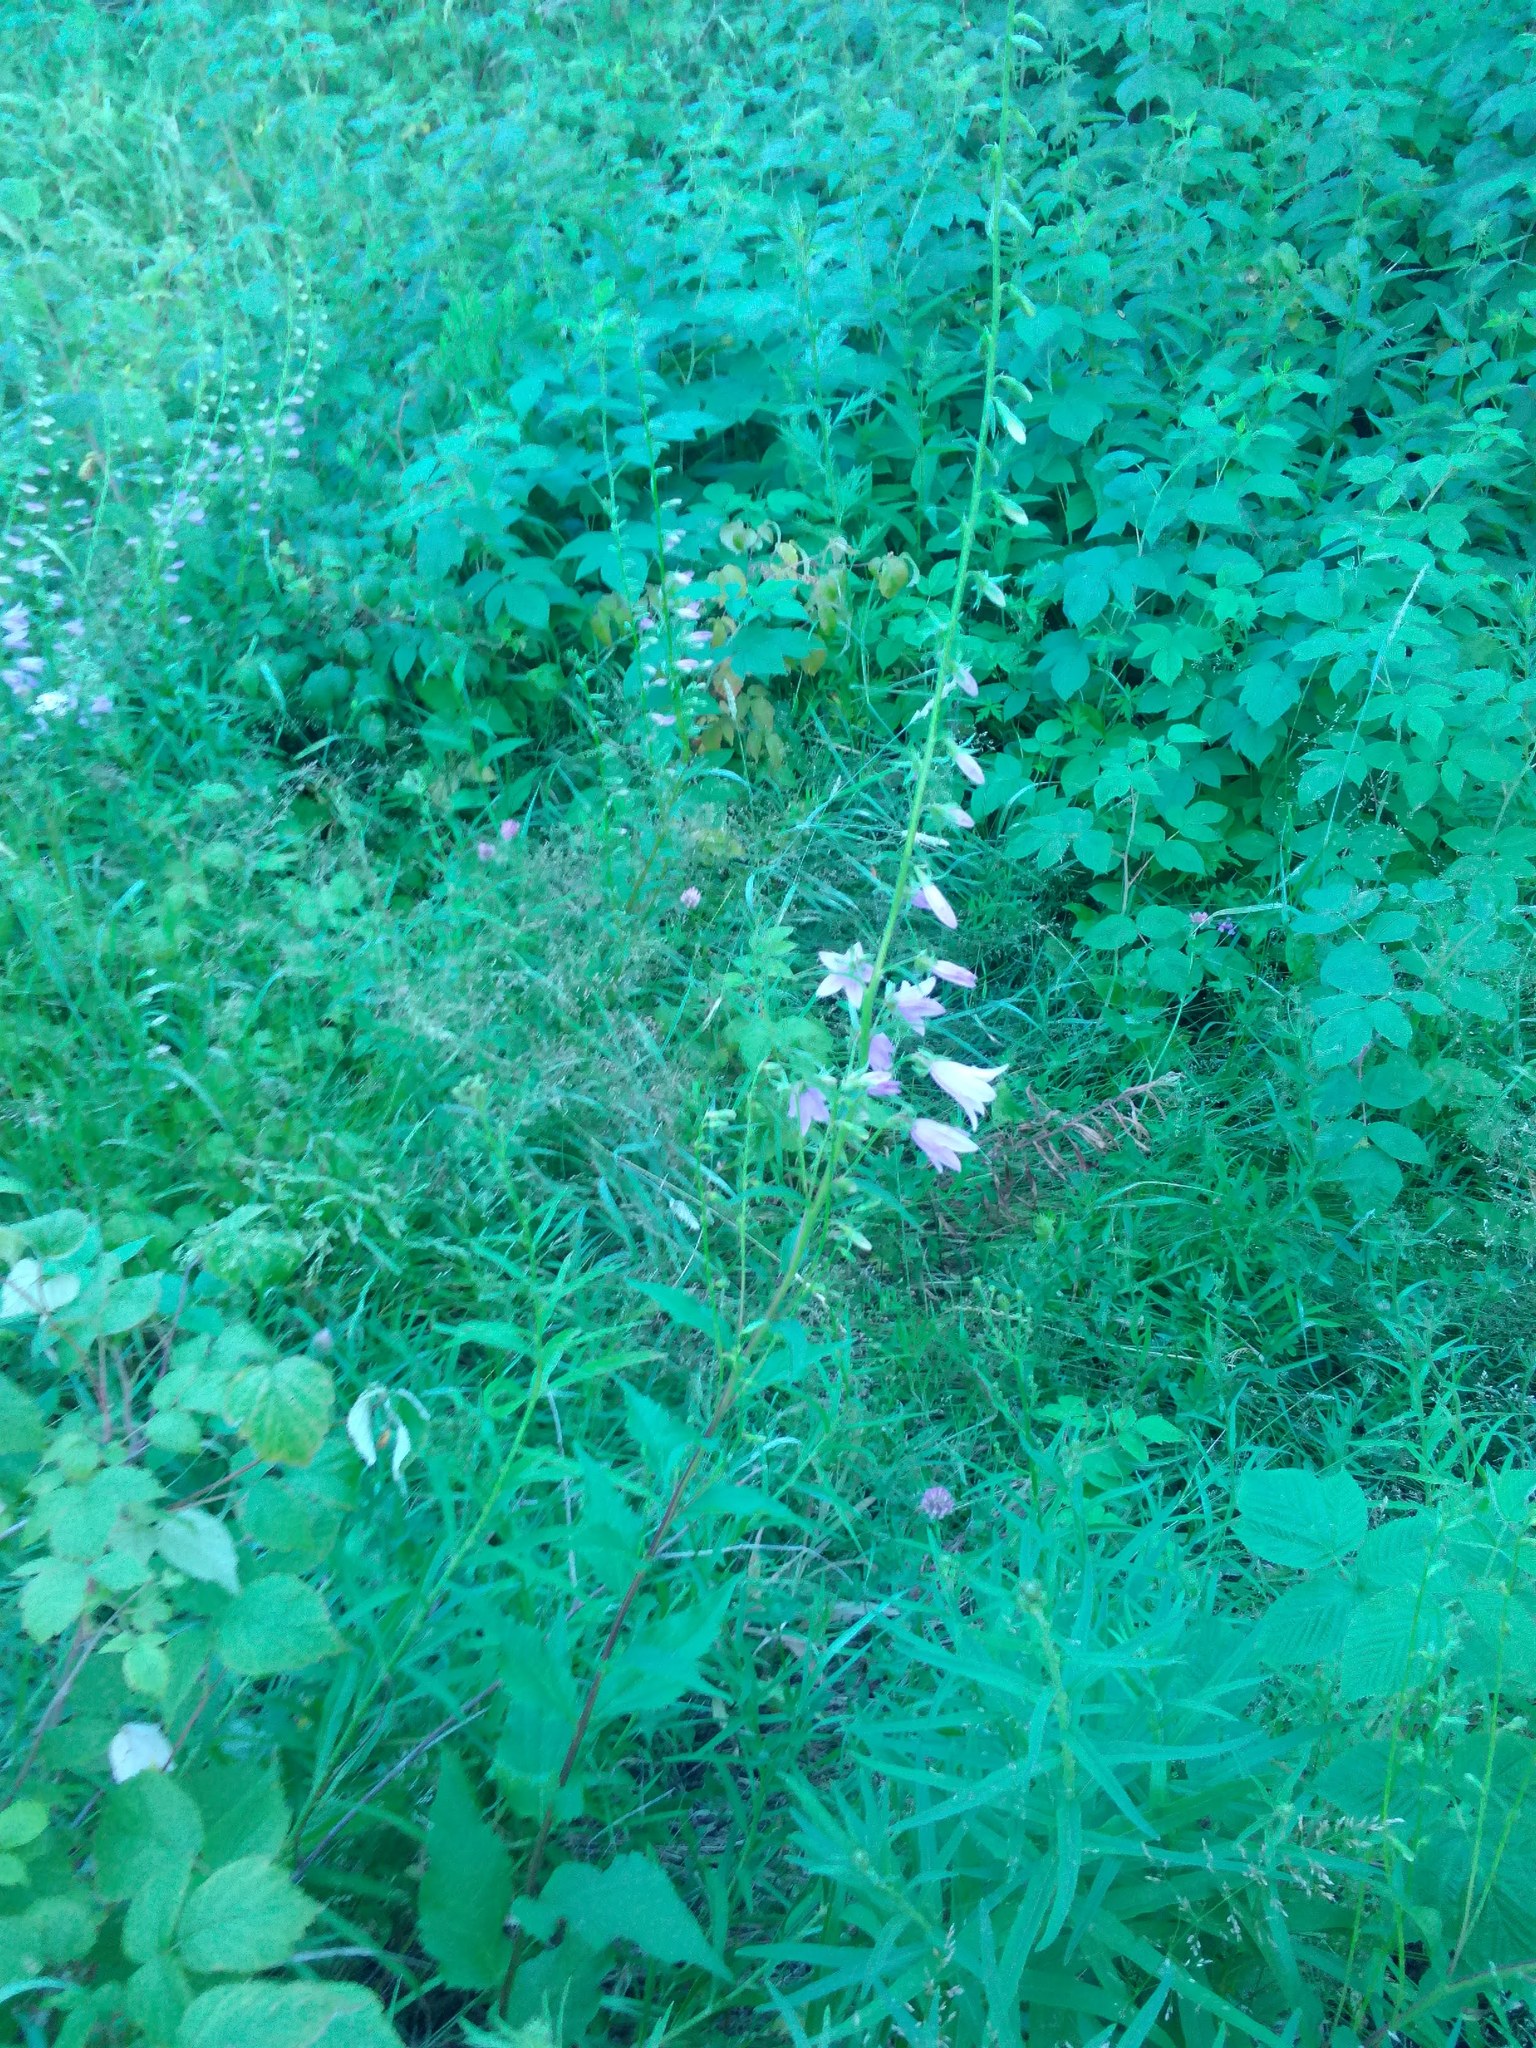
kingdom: Plantae
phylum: Tracheophyta
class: Magnoliopsida
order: Asterales
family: Campanulaceae
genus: Campanula
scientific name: Campanula rapunculoides
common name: Creeping bellflower
